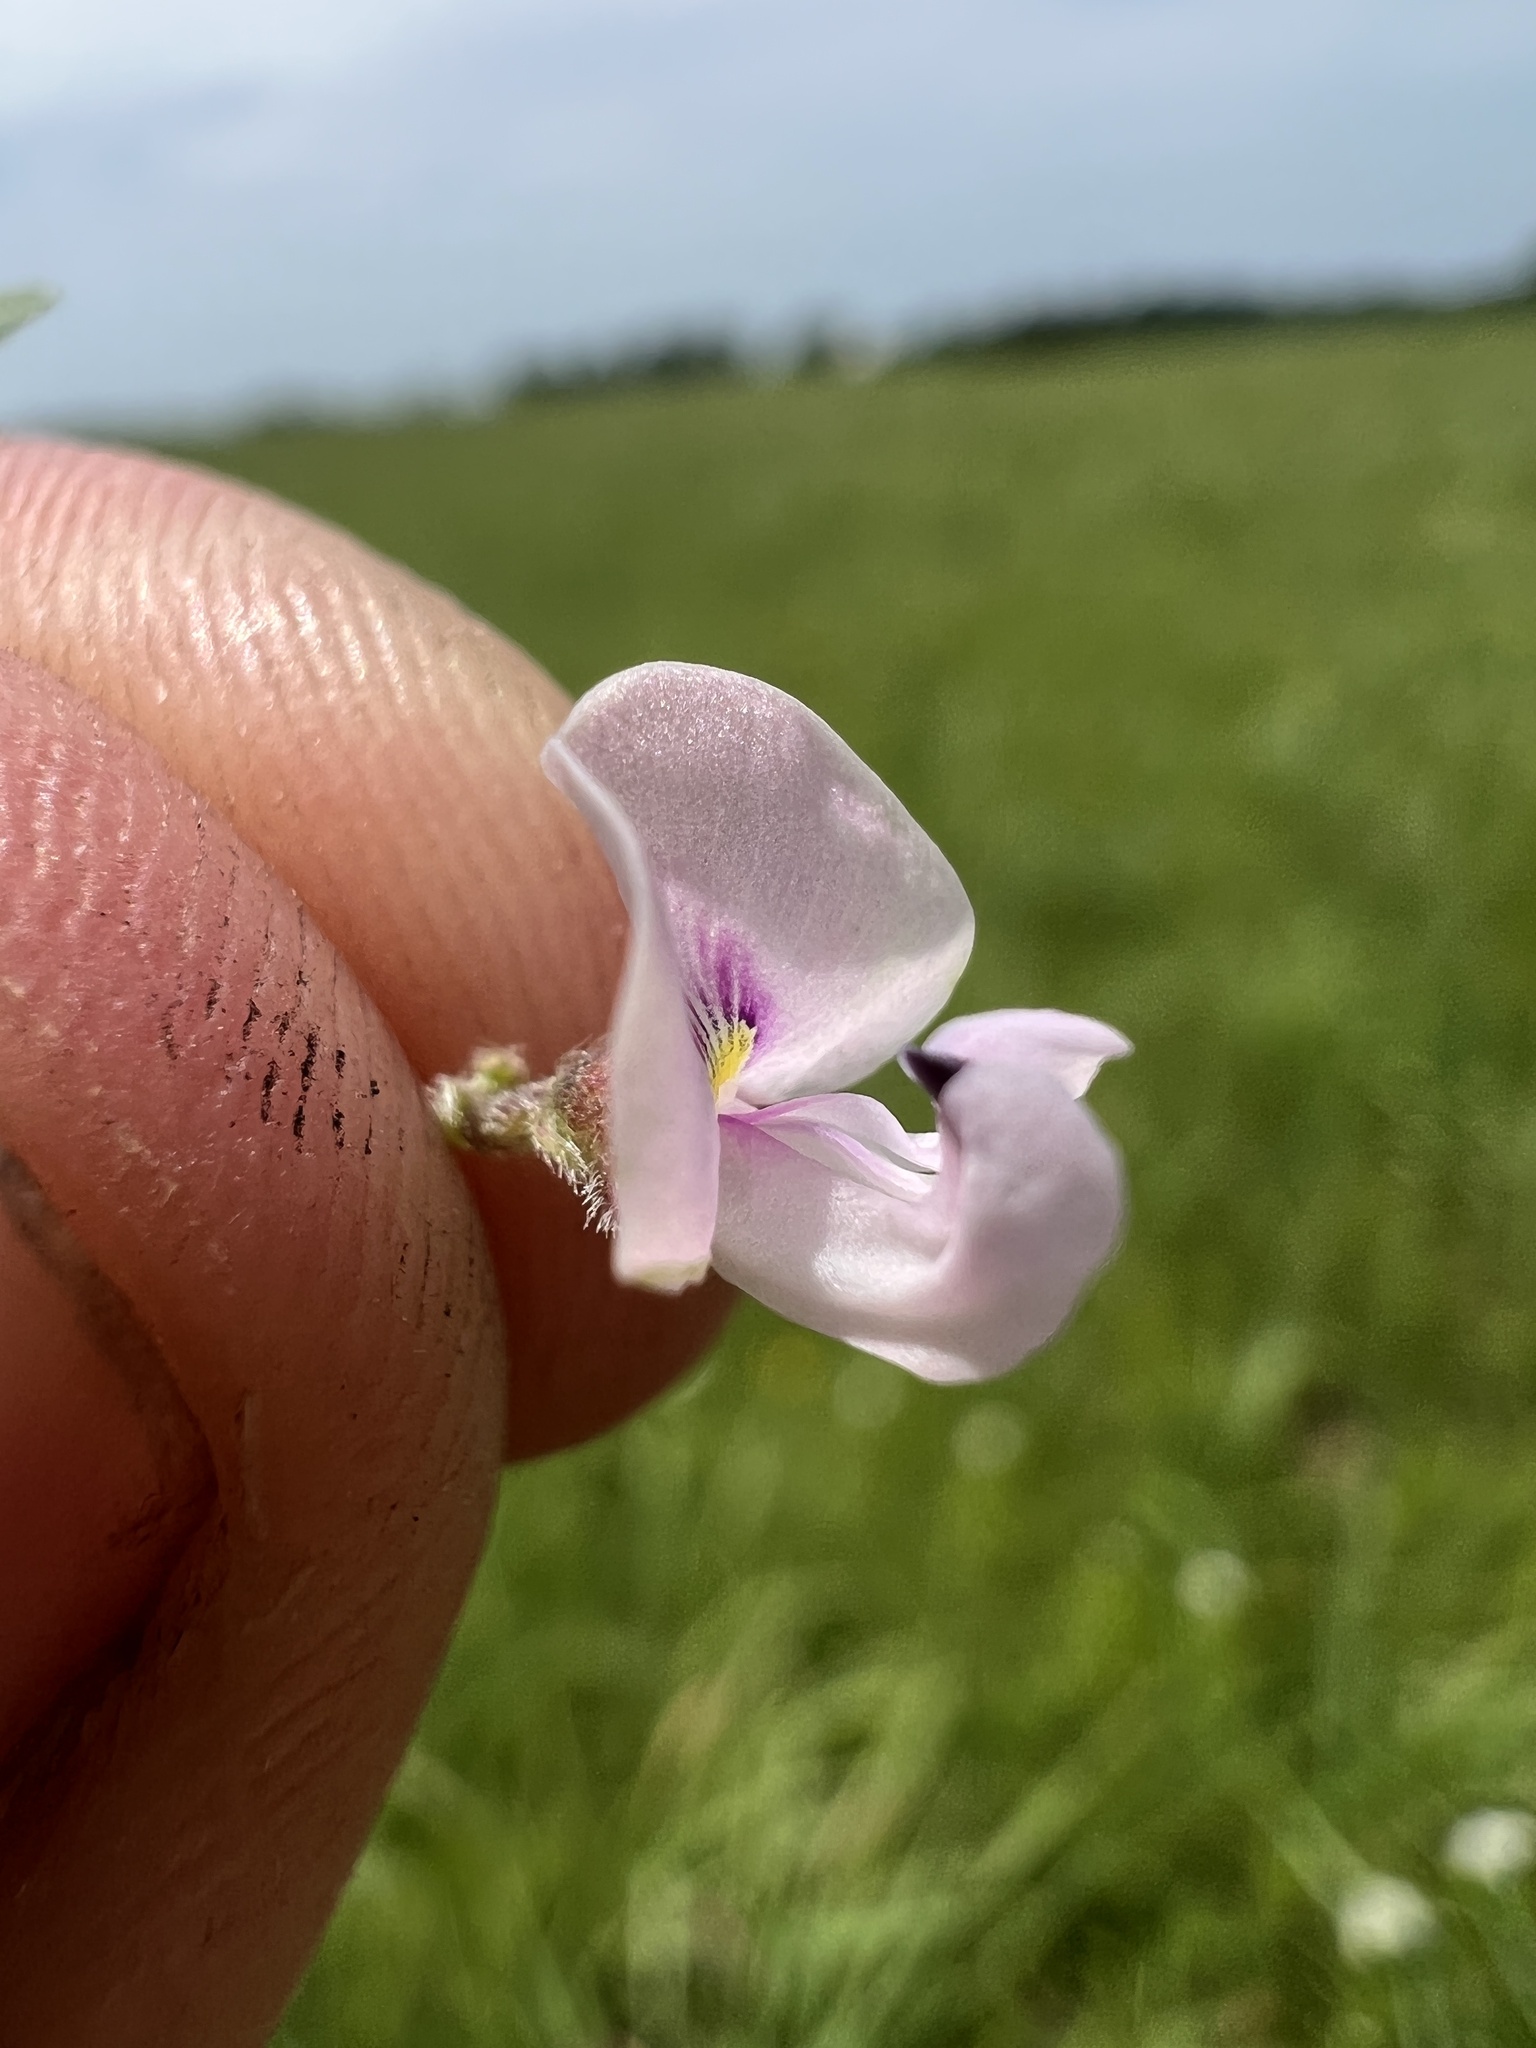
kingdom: Plantae
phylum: Tracheophyta
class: Magnoliopsida
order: Fabales
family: Fabaceae
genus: Strophostyles
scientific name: Strophostyles leiosperma
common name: Smooth-seed wild bean
